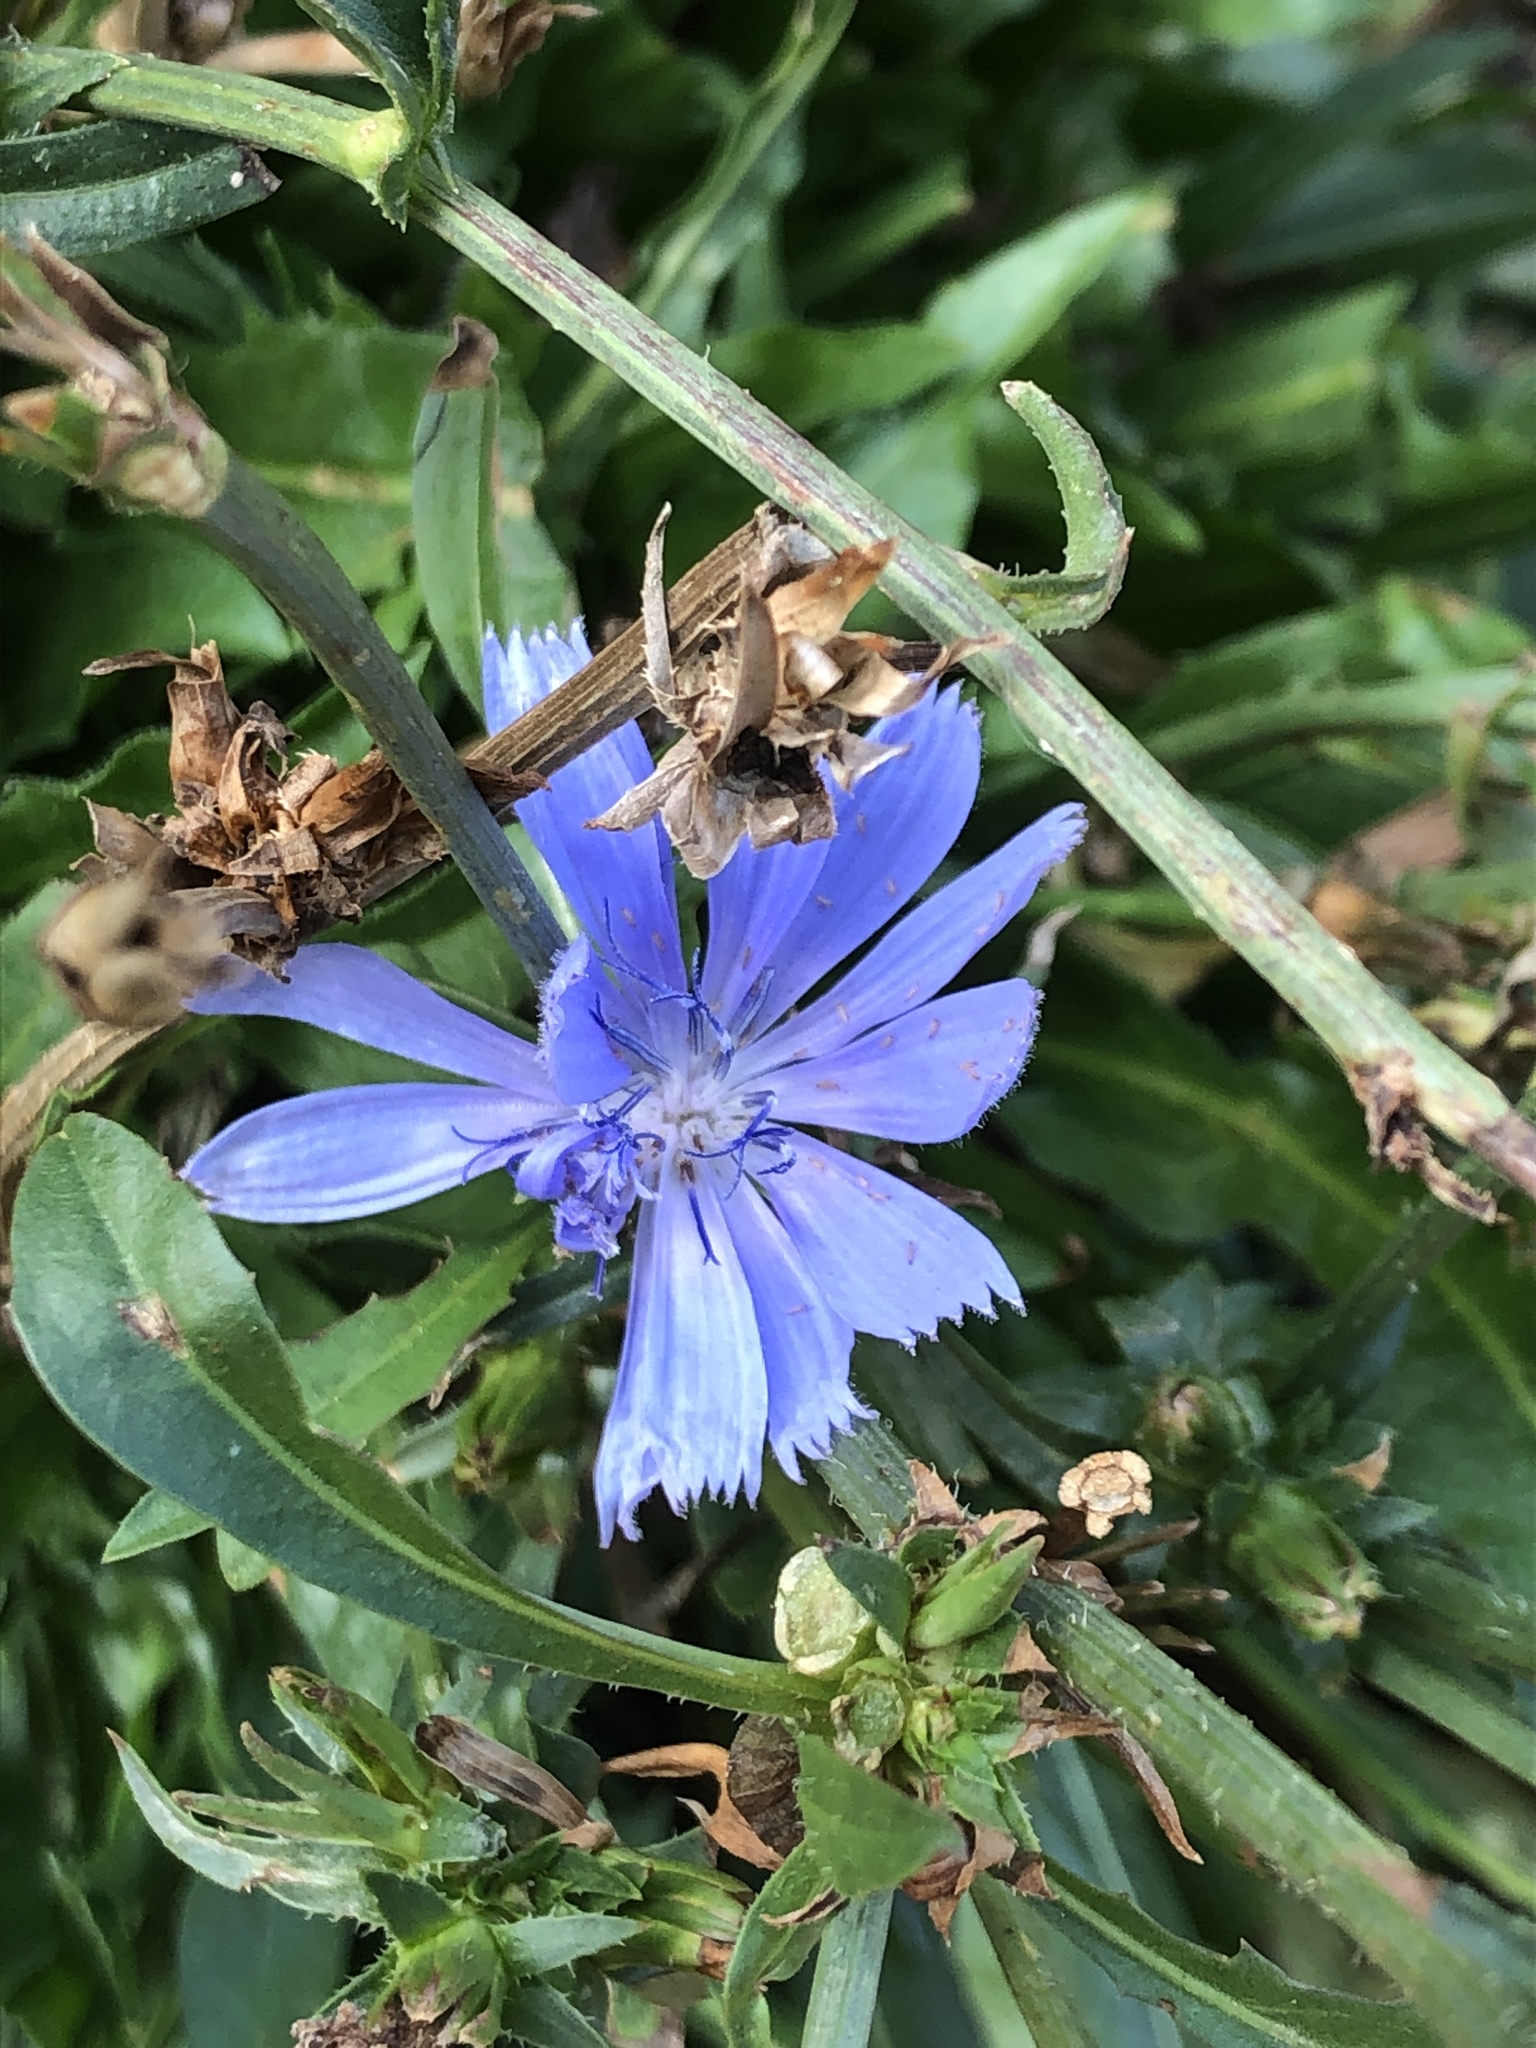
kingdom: Plantae
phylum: Tracheophyta
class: Magnoliopsida
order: Asterales
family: Asteraceae
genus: Cichorium
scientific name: Cichorium intybus
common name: Chicory
